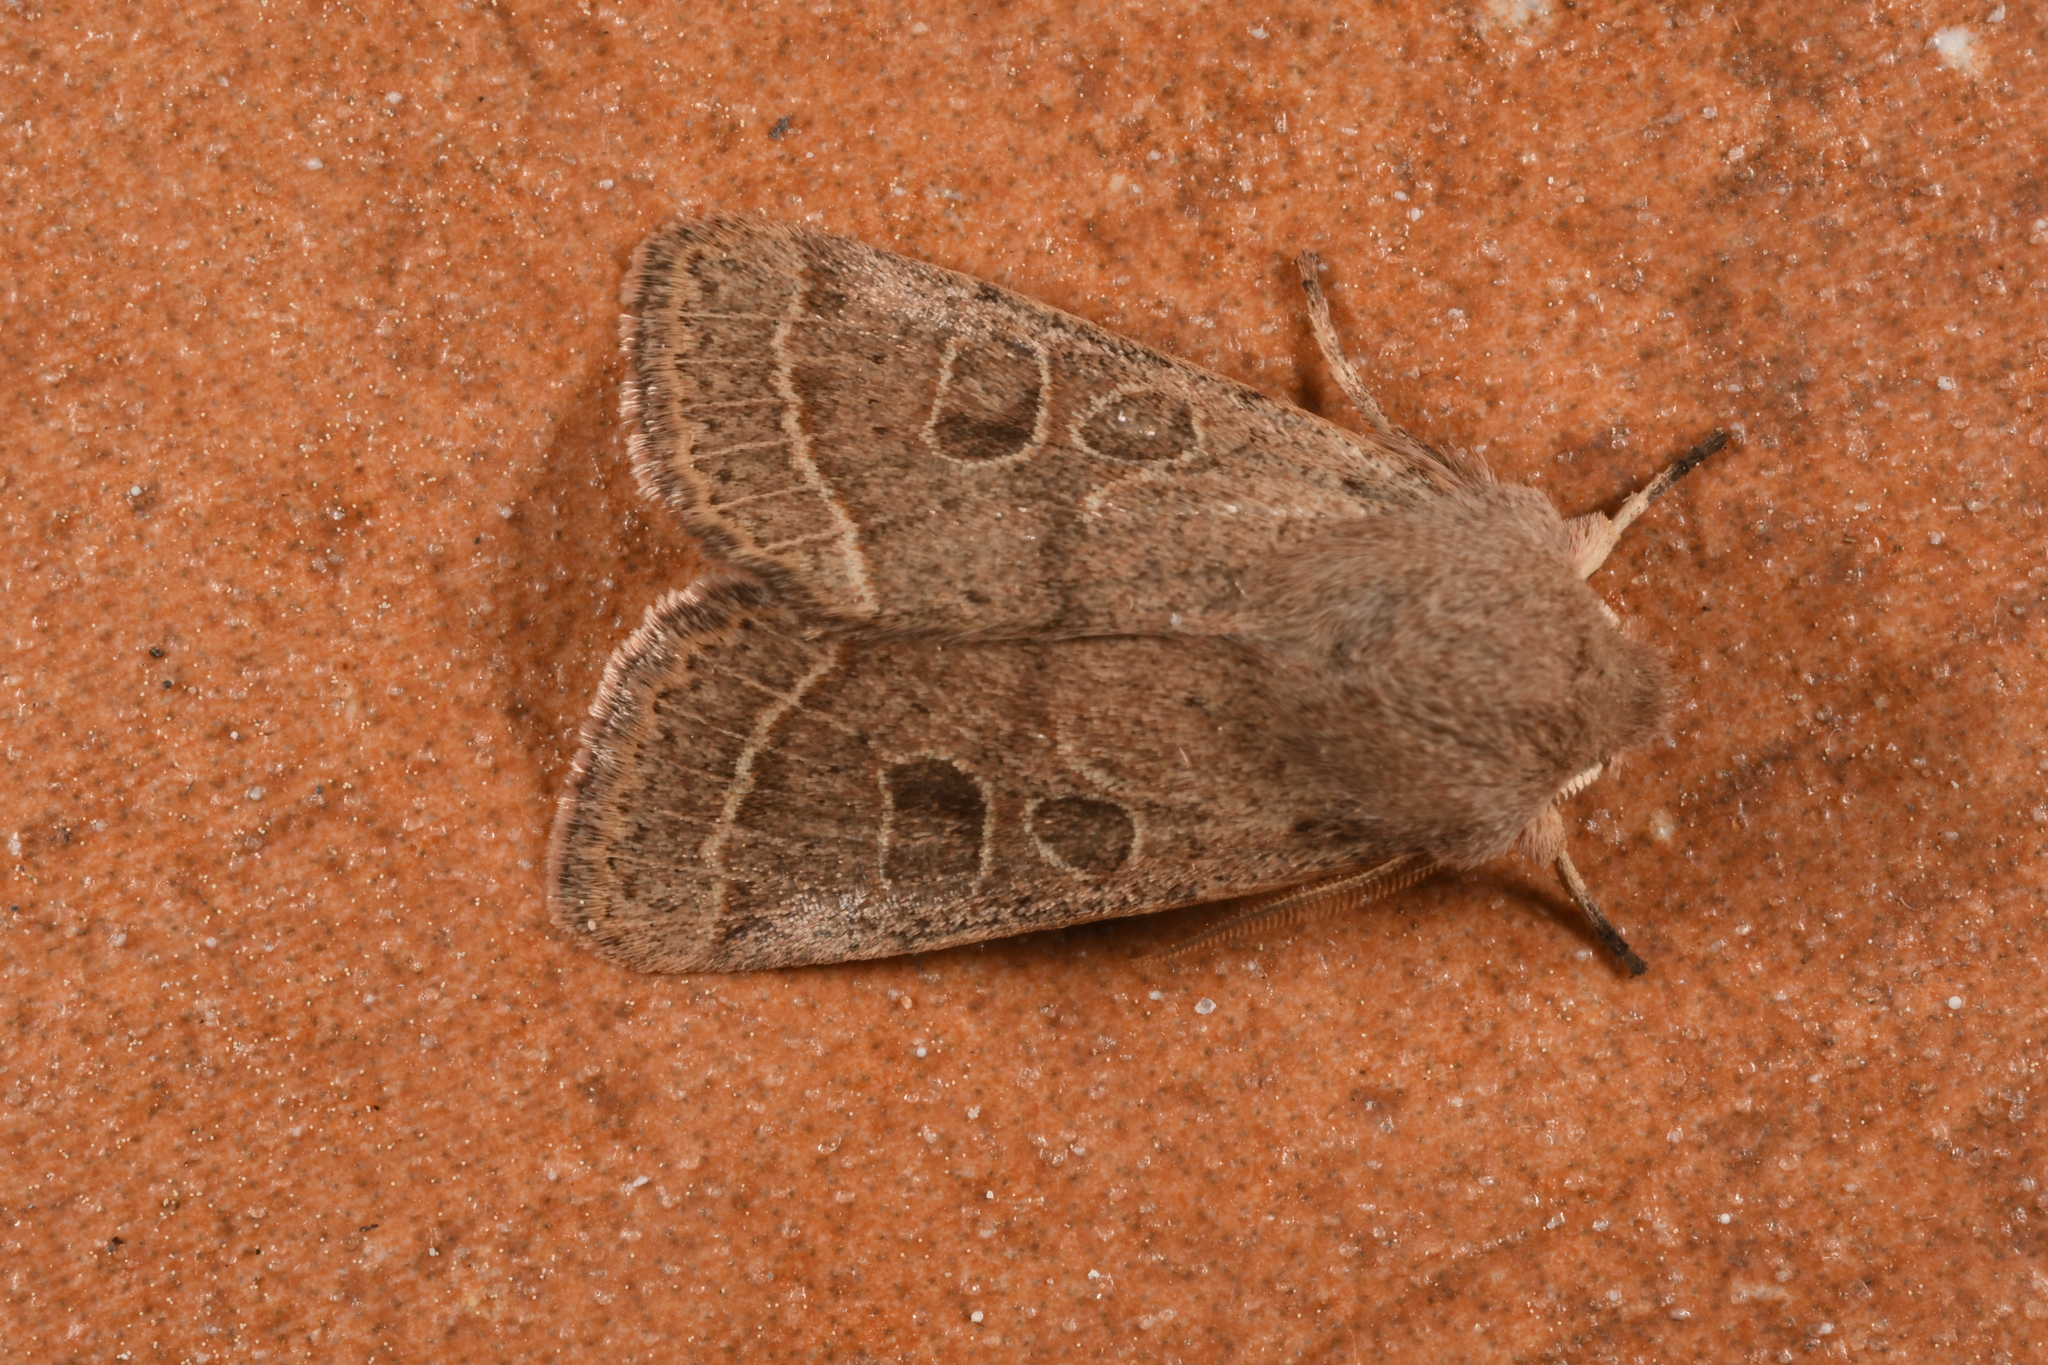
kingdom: Animalia
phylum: Arthropoda
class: Insecta
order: Lepidoptera
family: Noctuidae
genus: Orthosia
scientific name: Orthosia cerasi
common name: Common quaker
